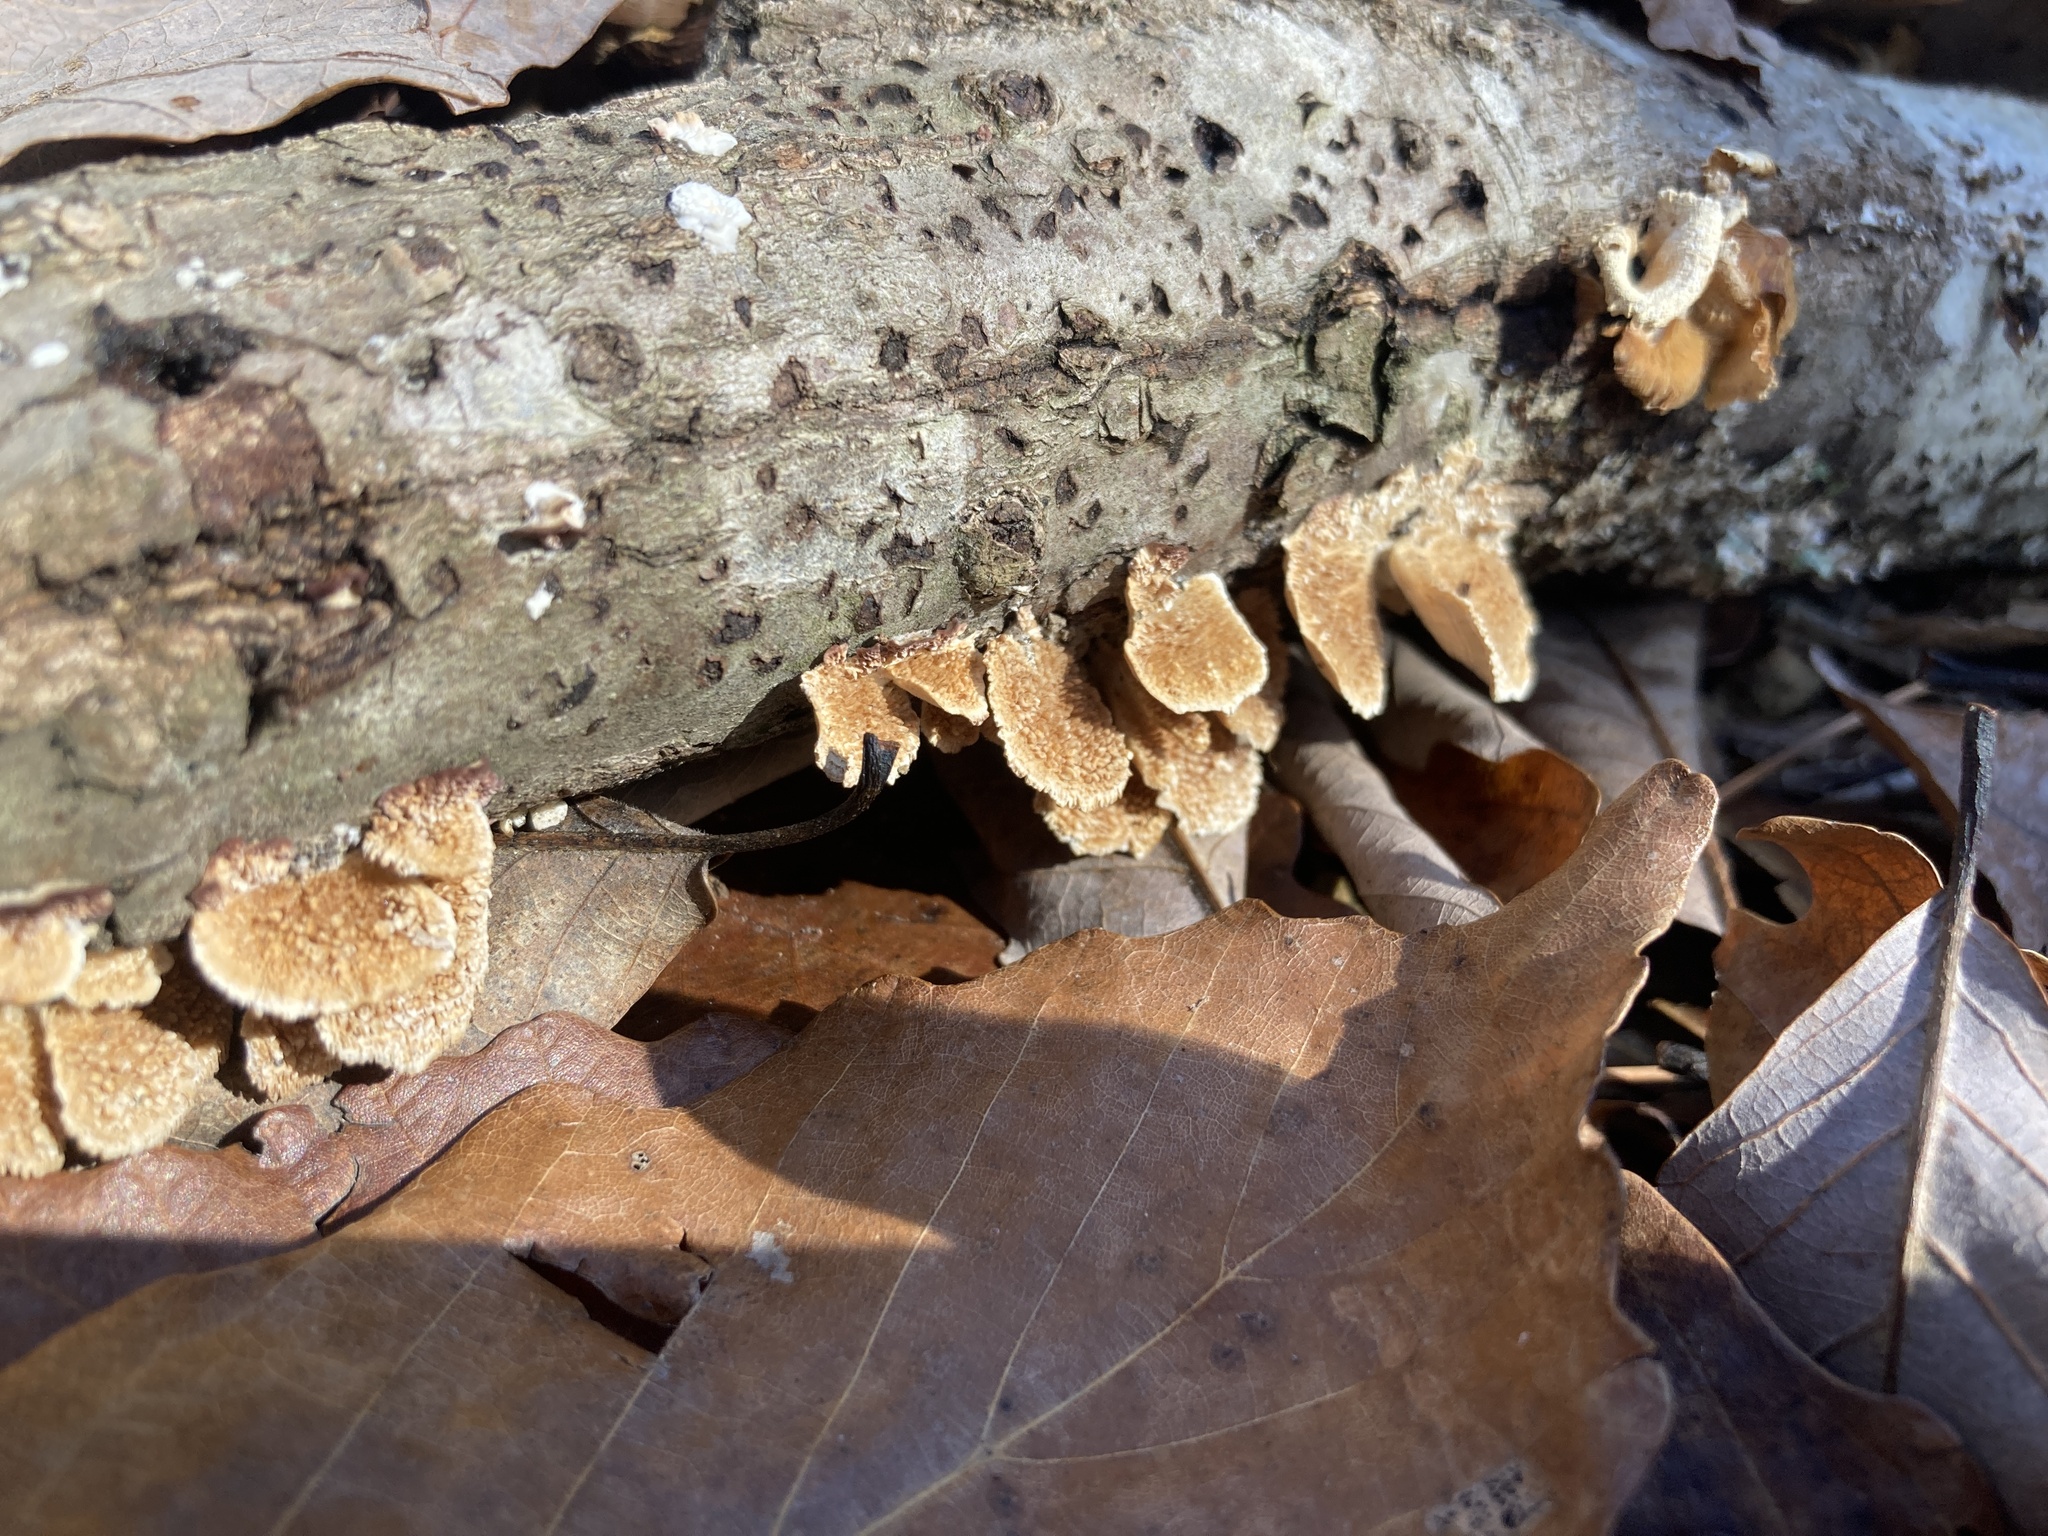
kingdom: Fungi
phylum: Basidiomycota
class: Agaricomycetes
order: Hymenochaetales
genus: Trichaptum
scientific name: Trichaptum biforme
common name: Violet-toothed polypore
